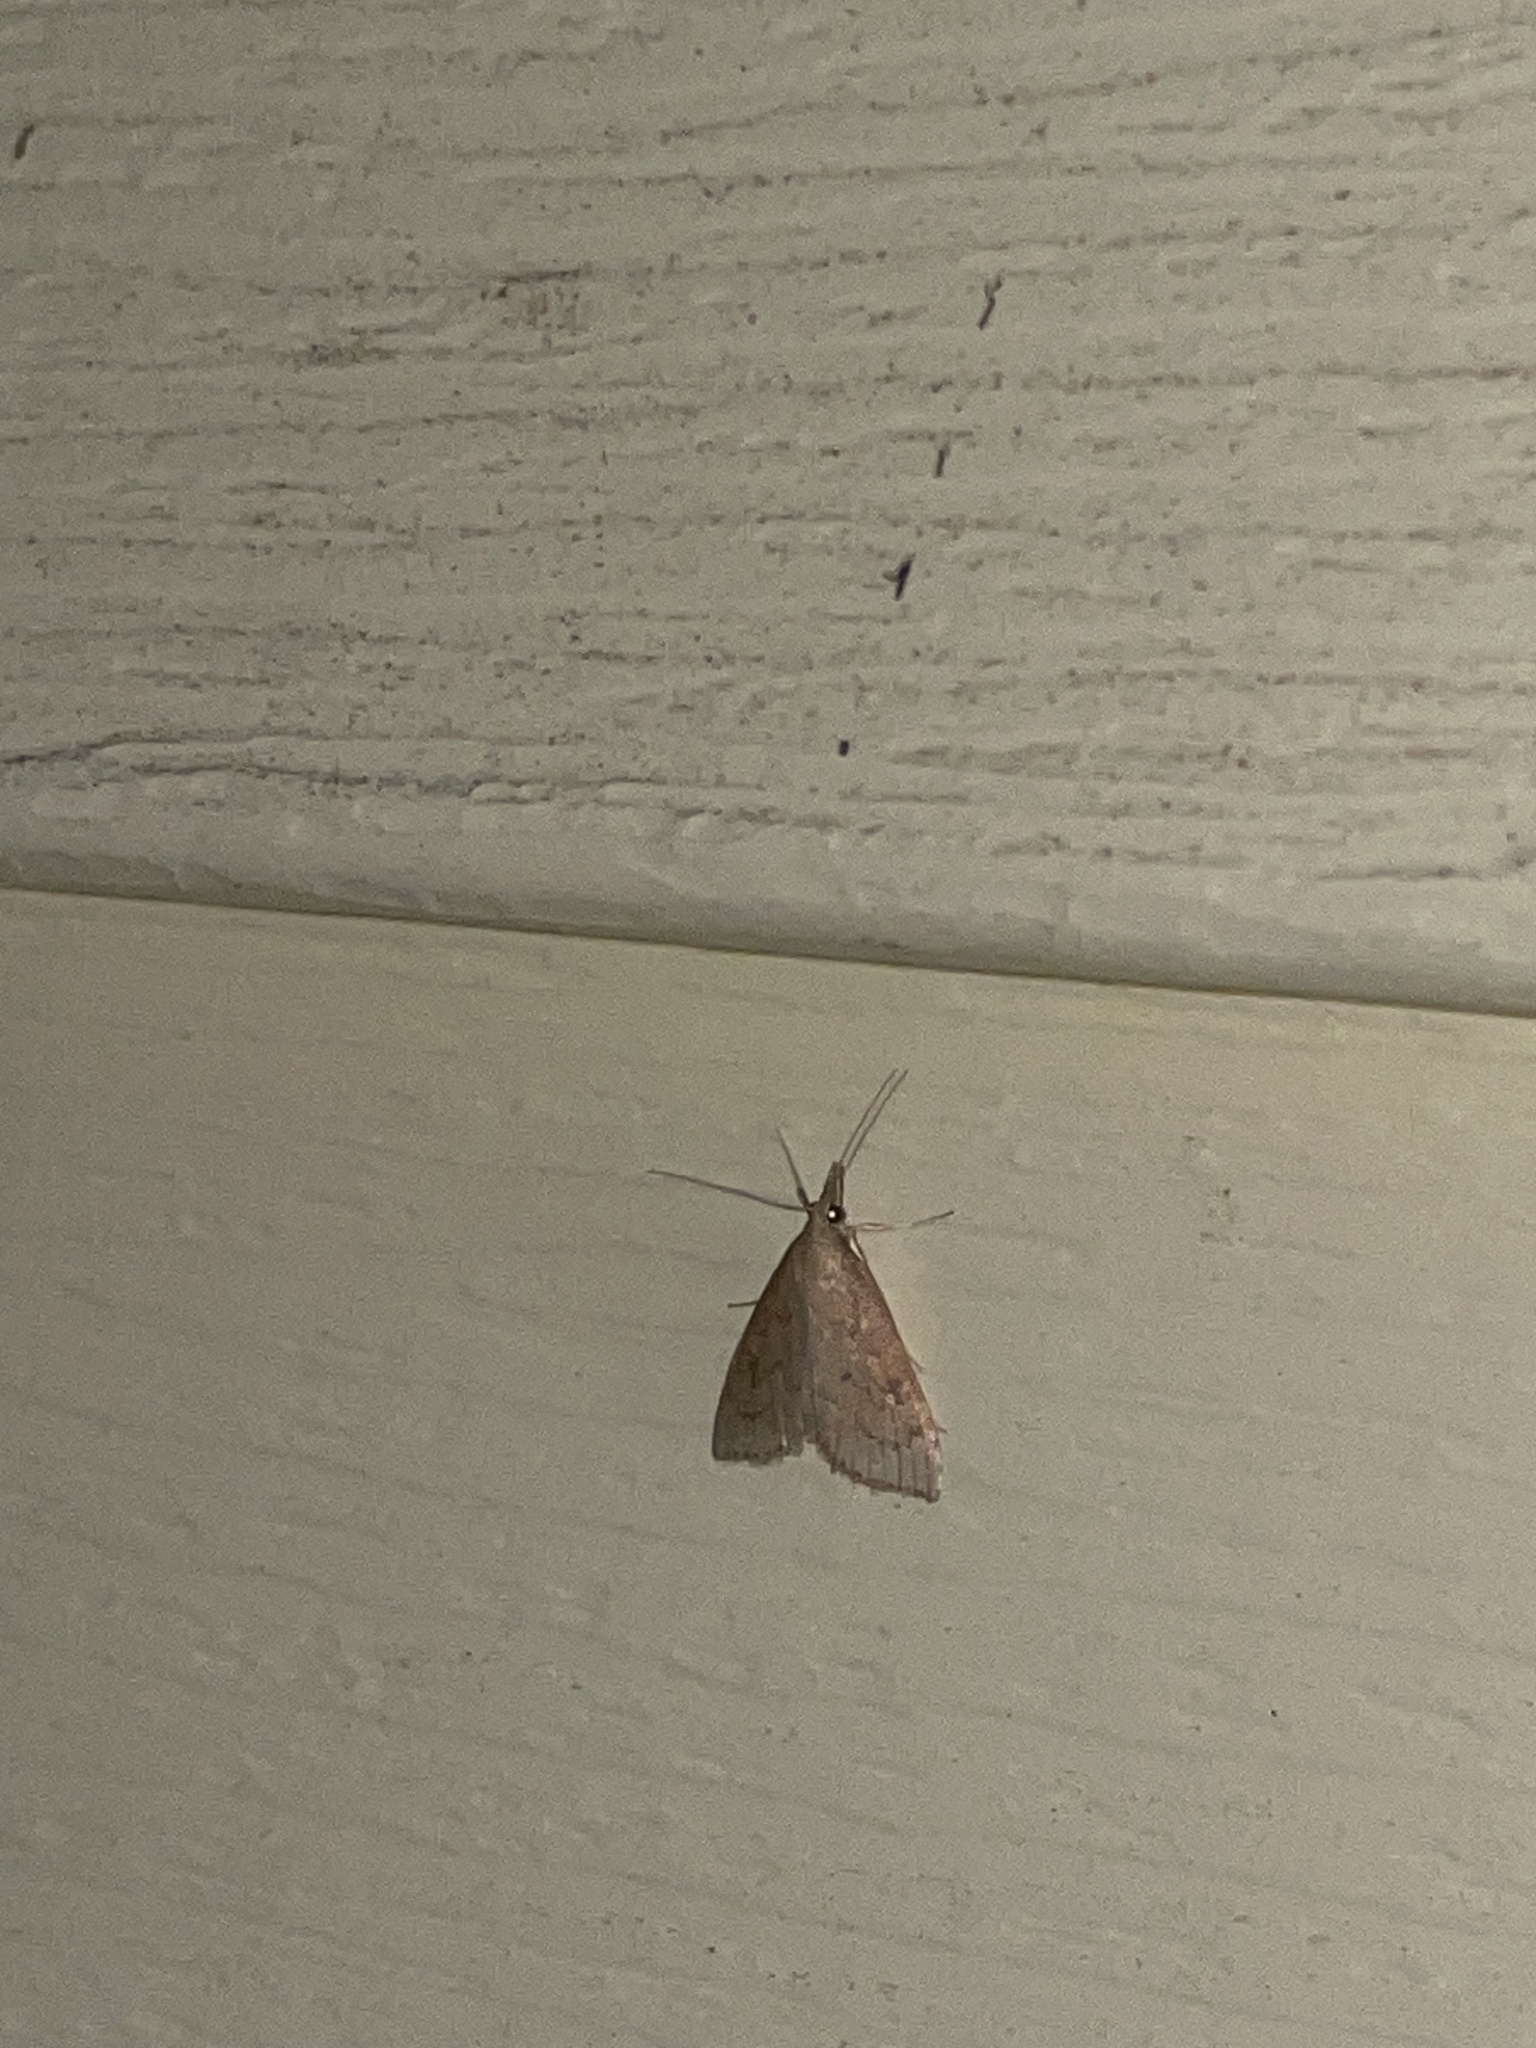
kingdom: Animalia
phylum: Arthropoda
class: Insecta
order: Lepidoptera
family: Crambidae
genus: Udea
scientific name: Udea rubigalis
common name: Celery leaftier moth
